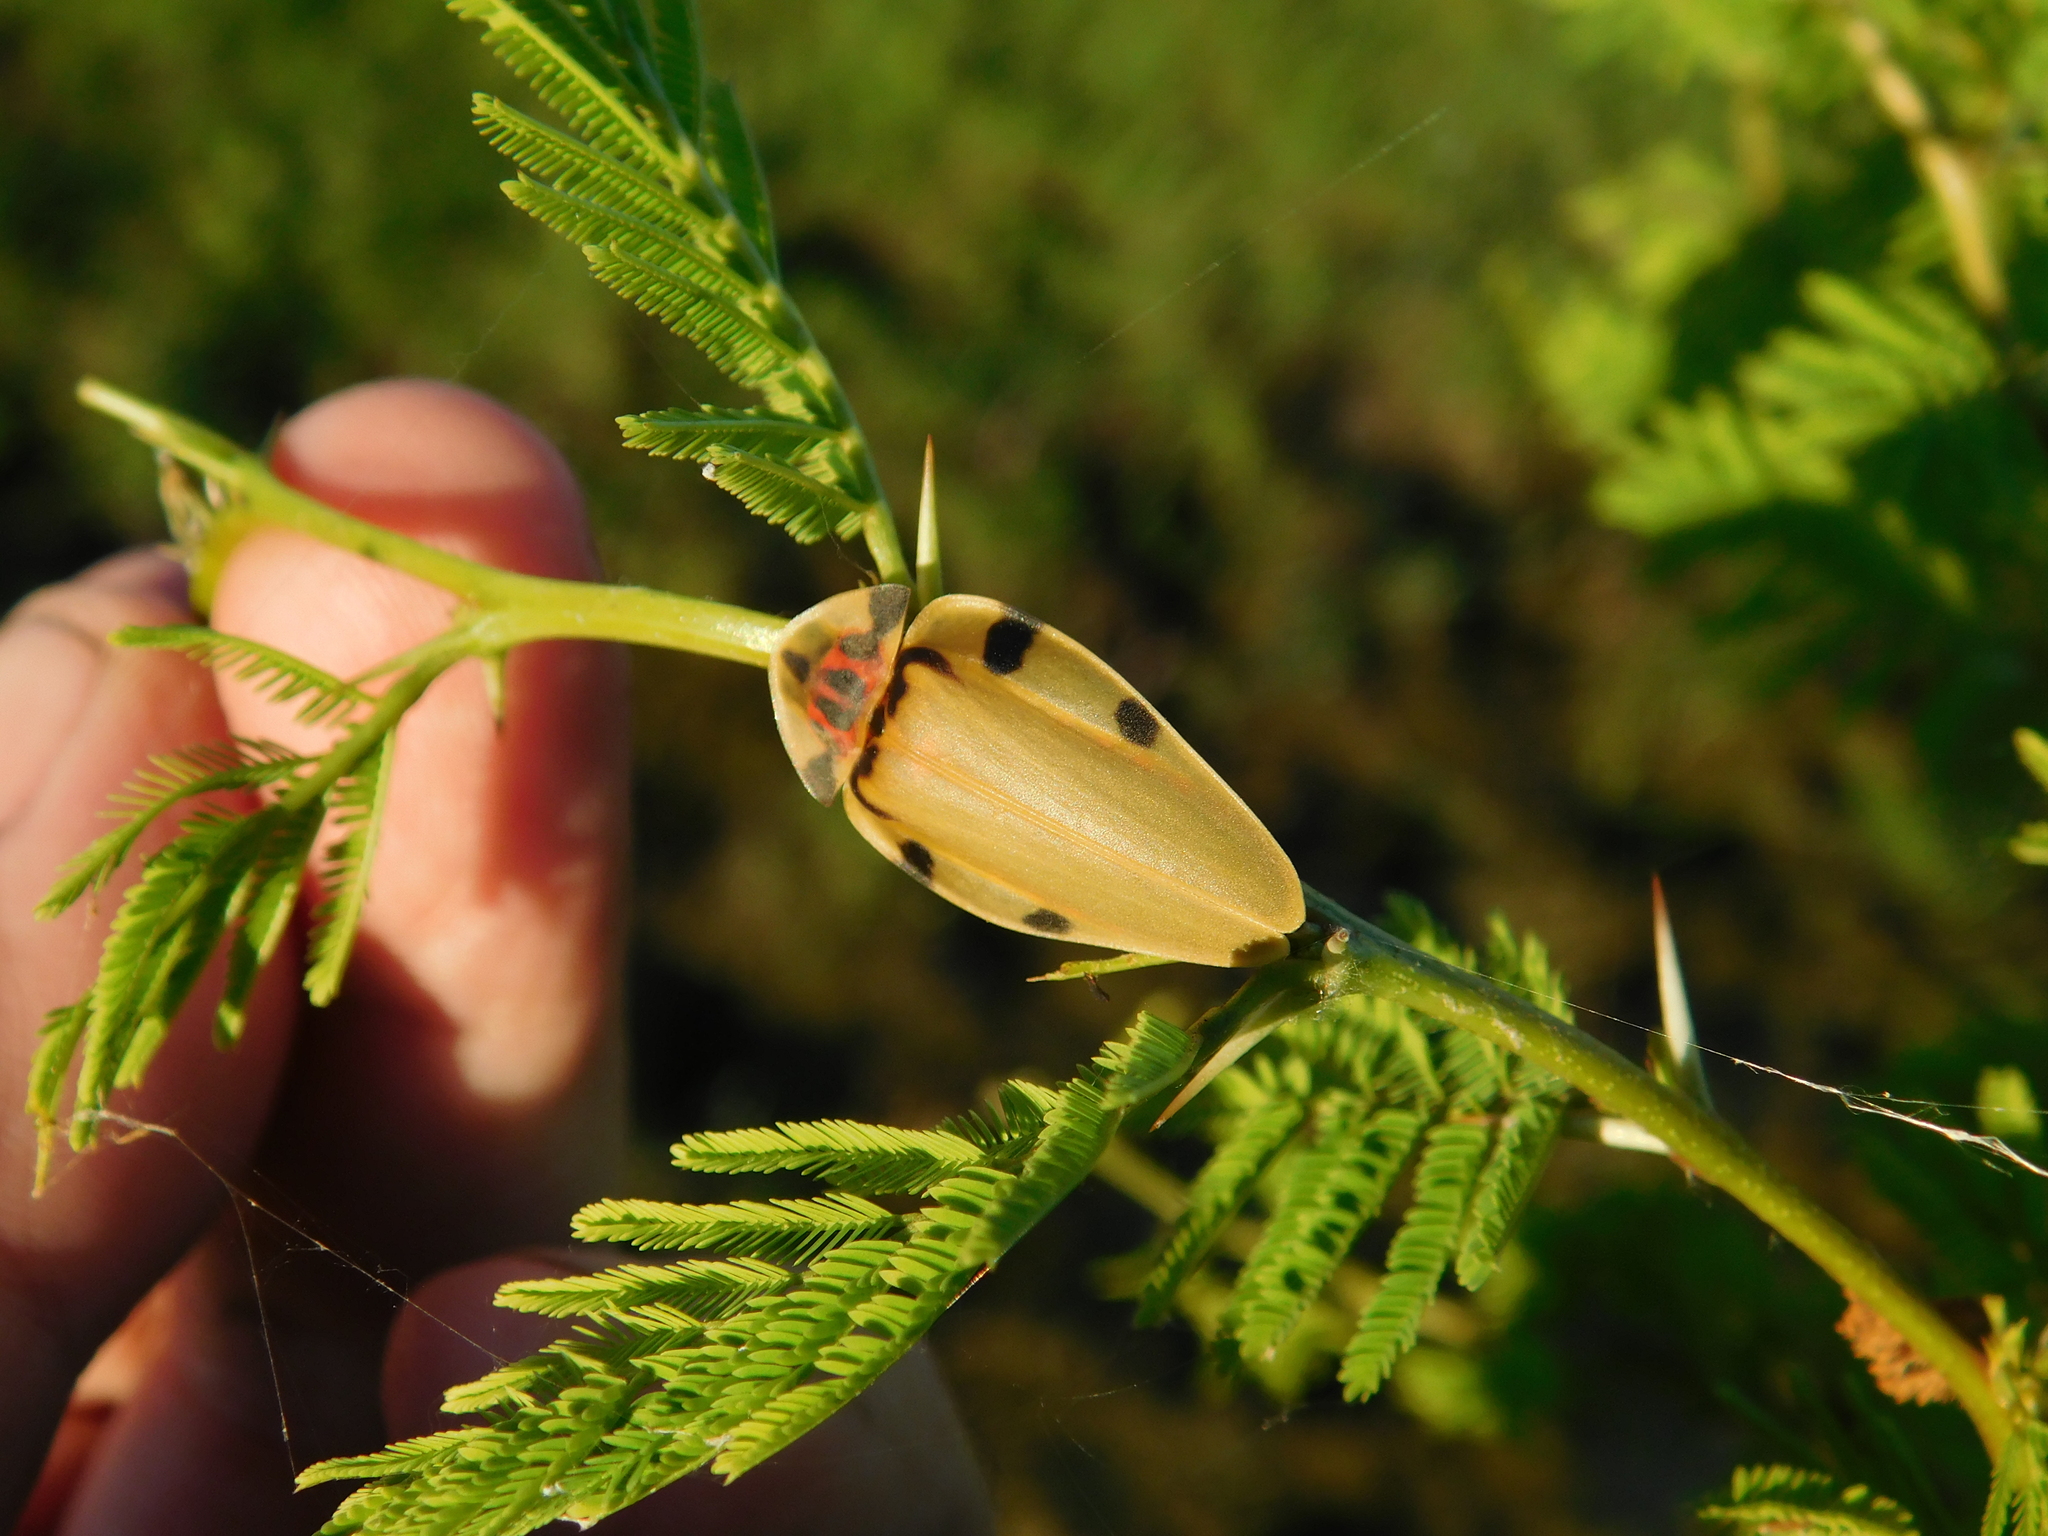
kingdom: Animalia
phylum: Arthropoda
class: Insecta
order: Coleoptera
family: Lampyridae
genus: Aspisoma
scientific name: Aspisoma sticticum
